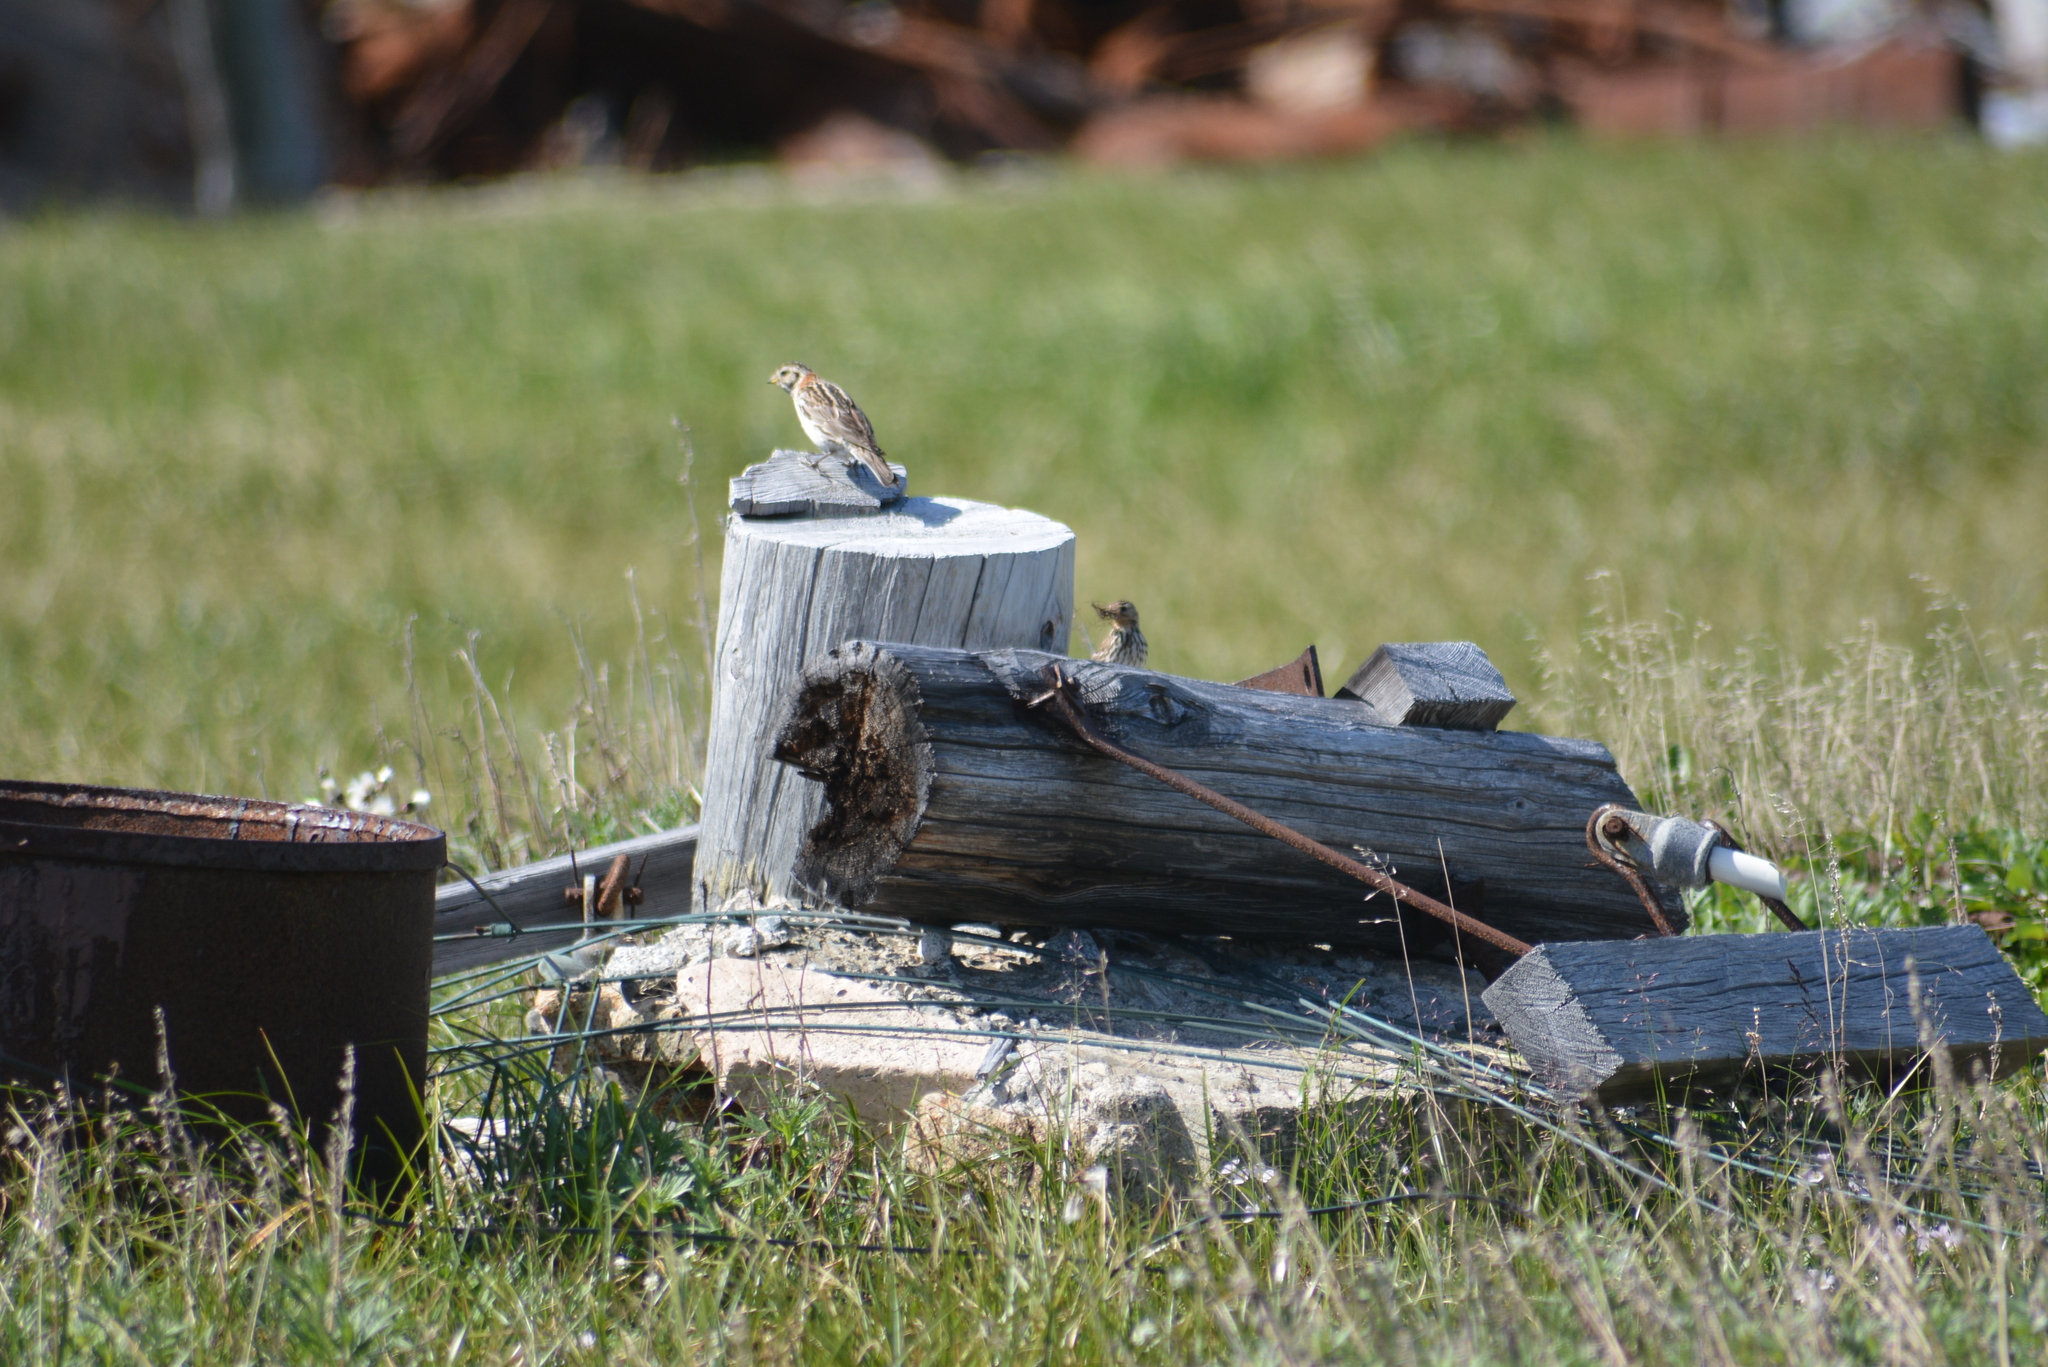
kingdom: Animalia
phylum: Chordata
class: Aves
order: Passeriformes
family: Calcariidae
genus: Calcarius
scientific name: Calcarius lapponicus
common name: Lapland longspur
